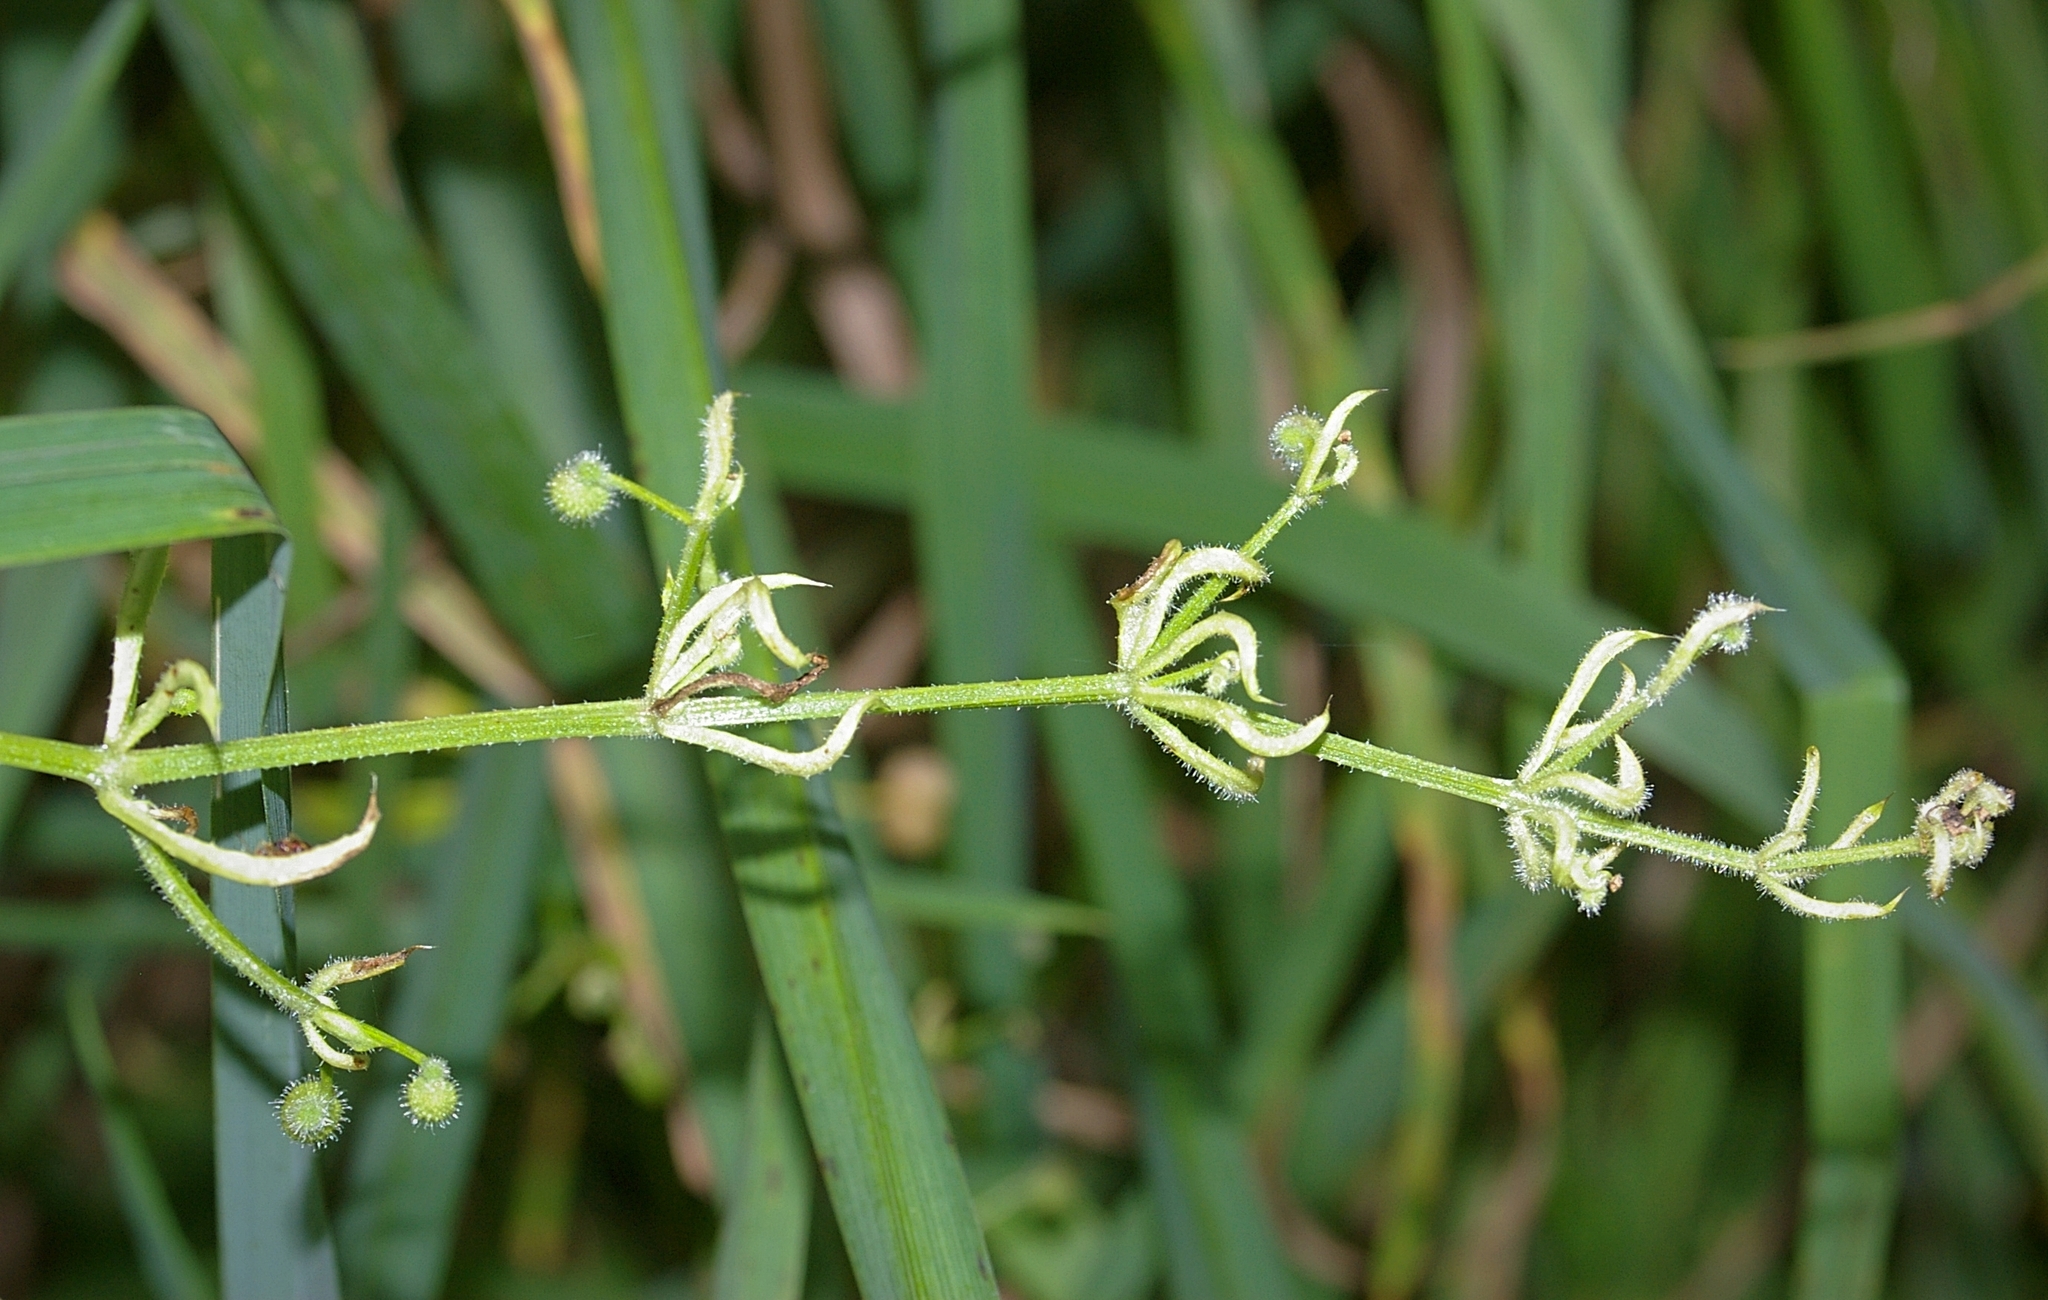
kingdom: Animalia
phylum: Arthropoda
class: Arachnida
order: Trombidiformes
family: Eriophyidae
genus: Cecidophyes
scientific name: Cecidophyes rouhollahi
